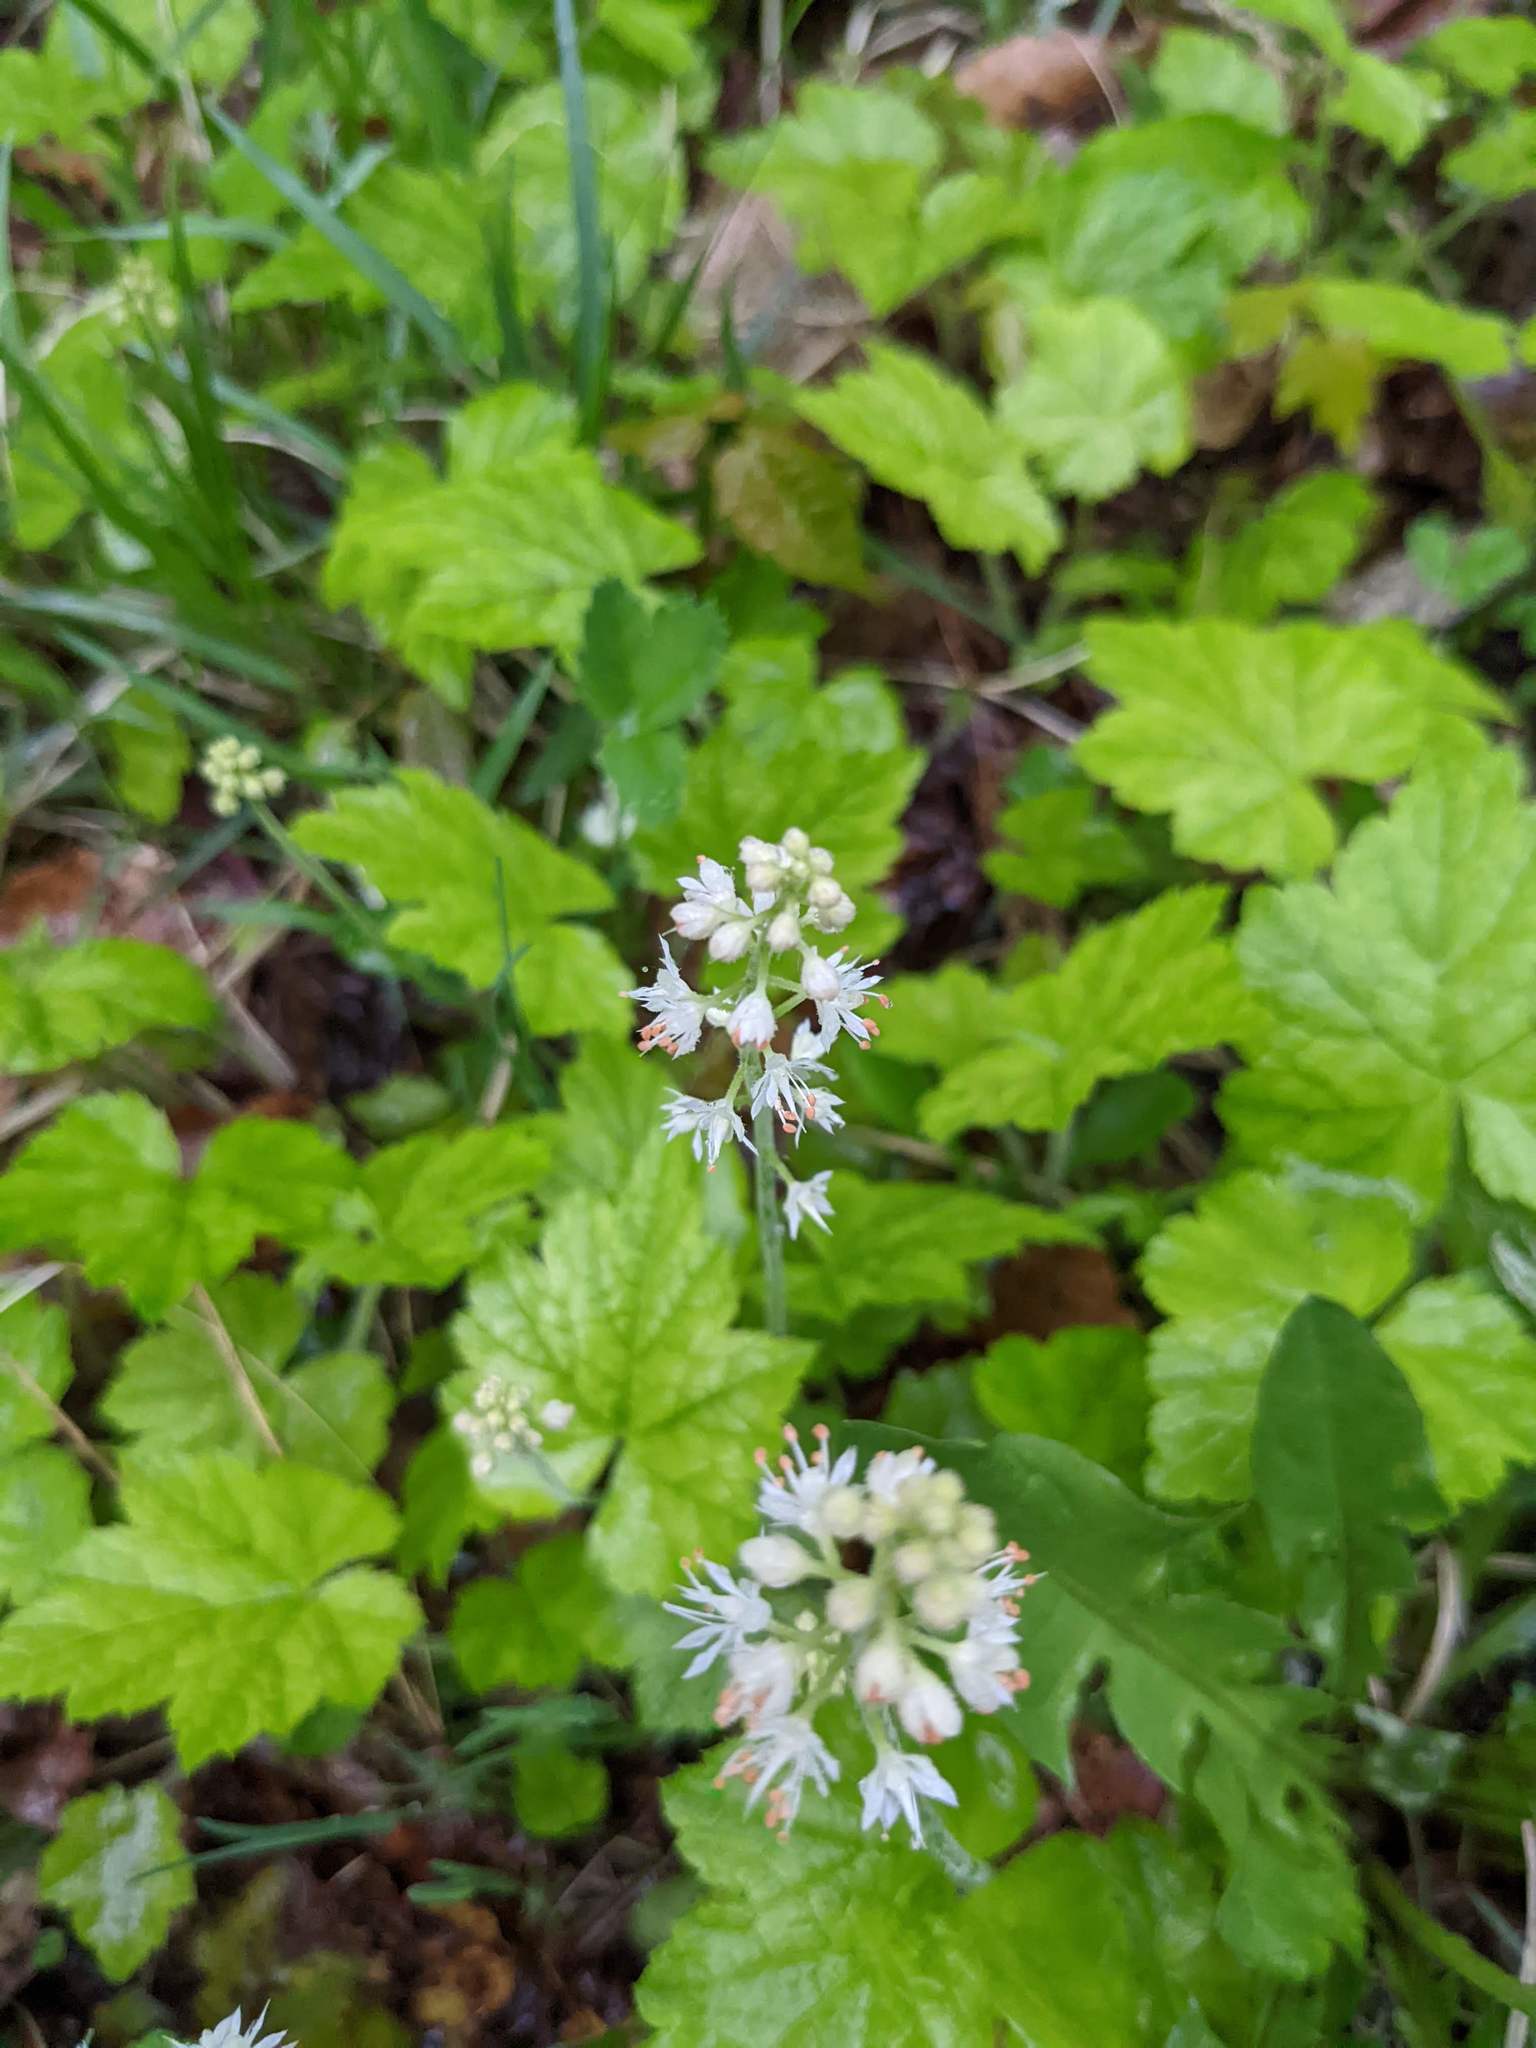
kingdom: Plantae
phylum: Tracheophyta
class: Magnoliopsida
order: Saxifragales
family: Saxifragaceae
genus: Tiarella
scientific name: Tiarella stolonifera
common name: Stoloniferous foamflower
